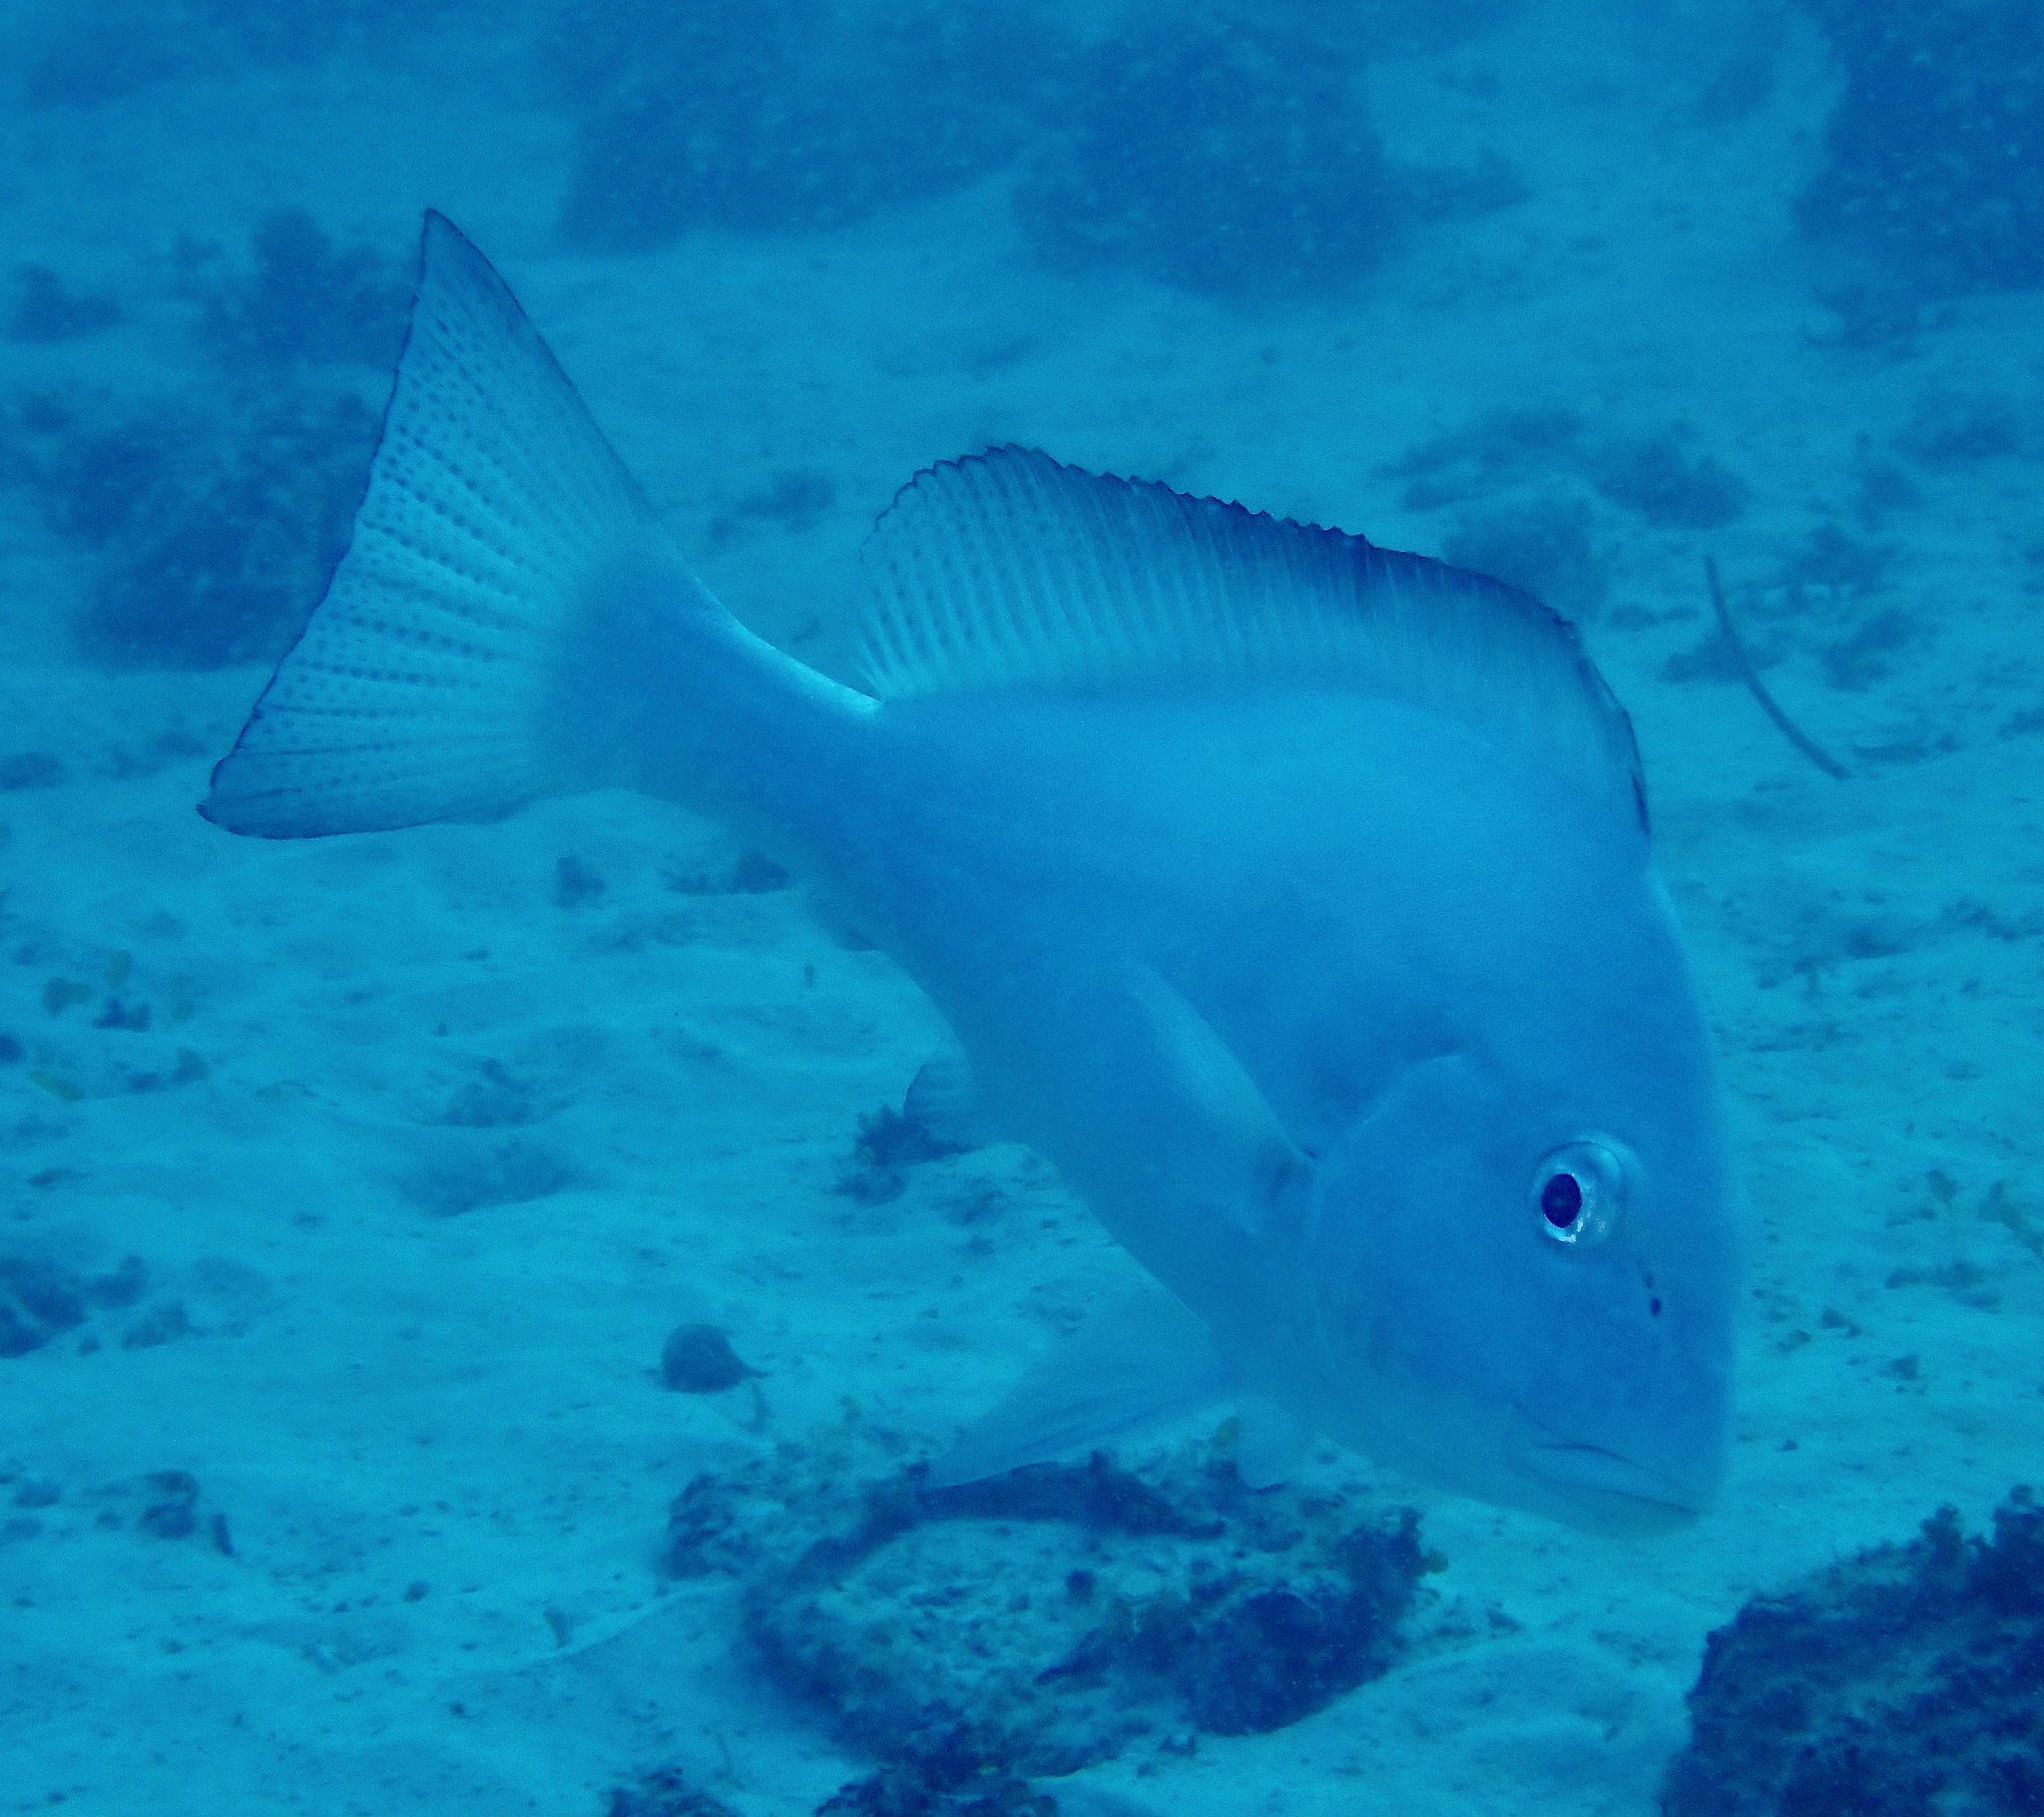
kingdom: Animalia
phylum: Chordata
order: Perciformes
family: Haemulidae
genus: Diagramma
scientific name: Diagramma pictum
